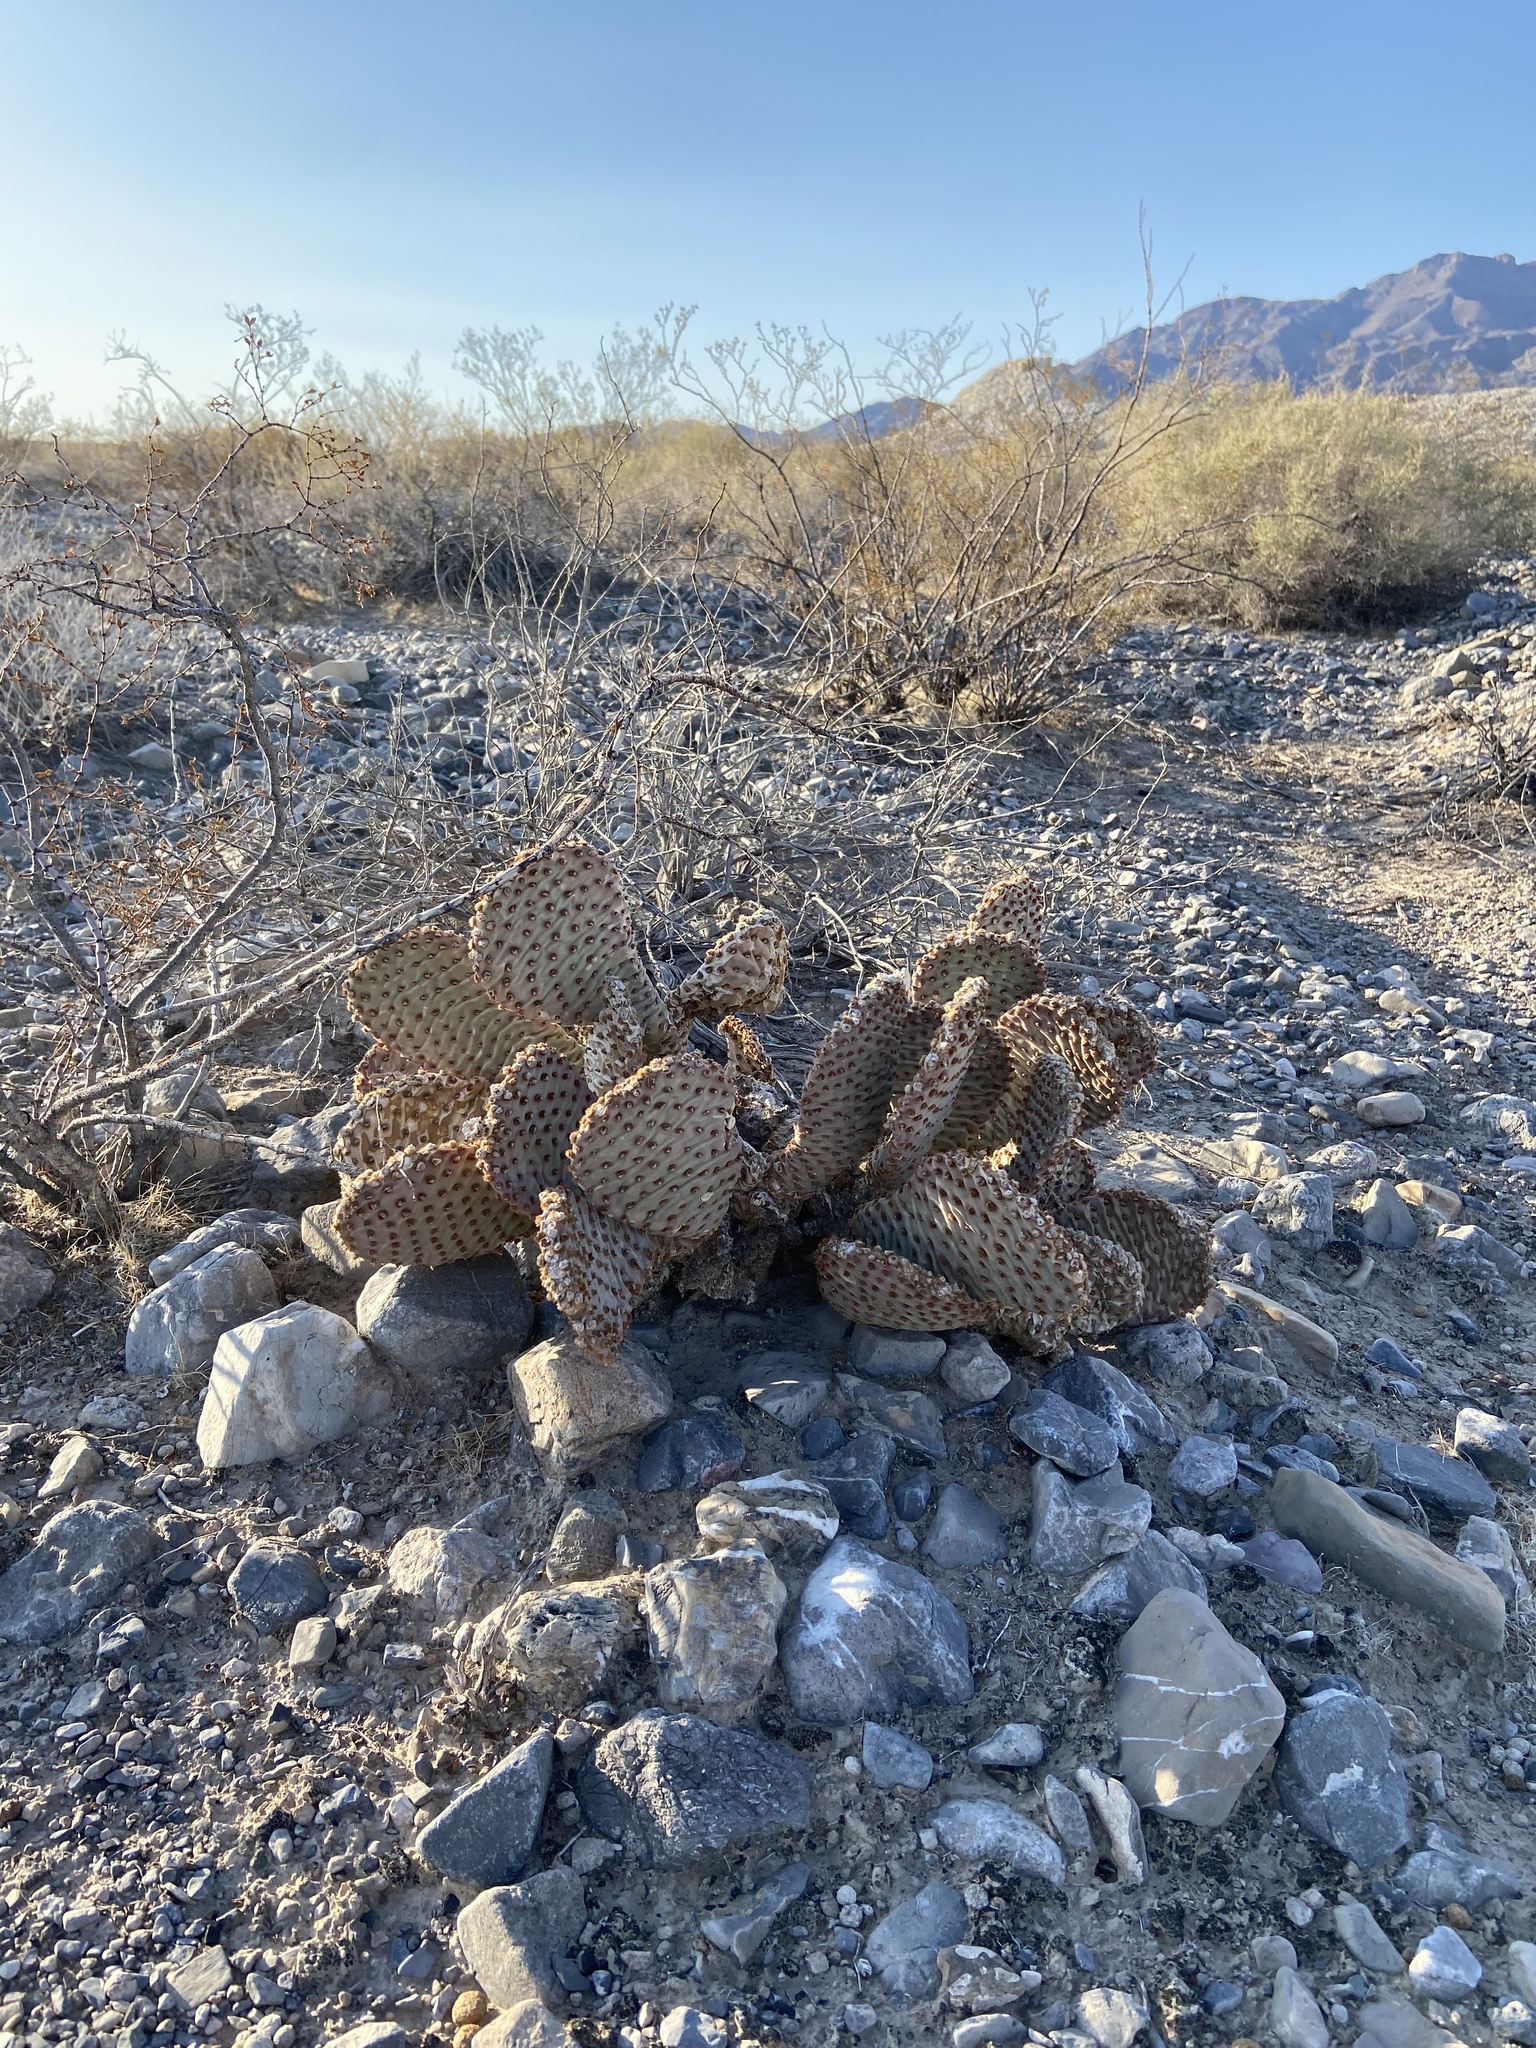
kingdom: Plantae
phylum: Tracheophyta
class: Magnoliopsida
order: Caryophyllales
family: Cactaceae
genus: Opuntia
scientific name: Opuntia basilaris
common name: Beavertail prickly-pear
